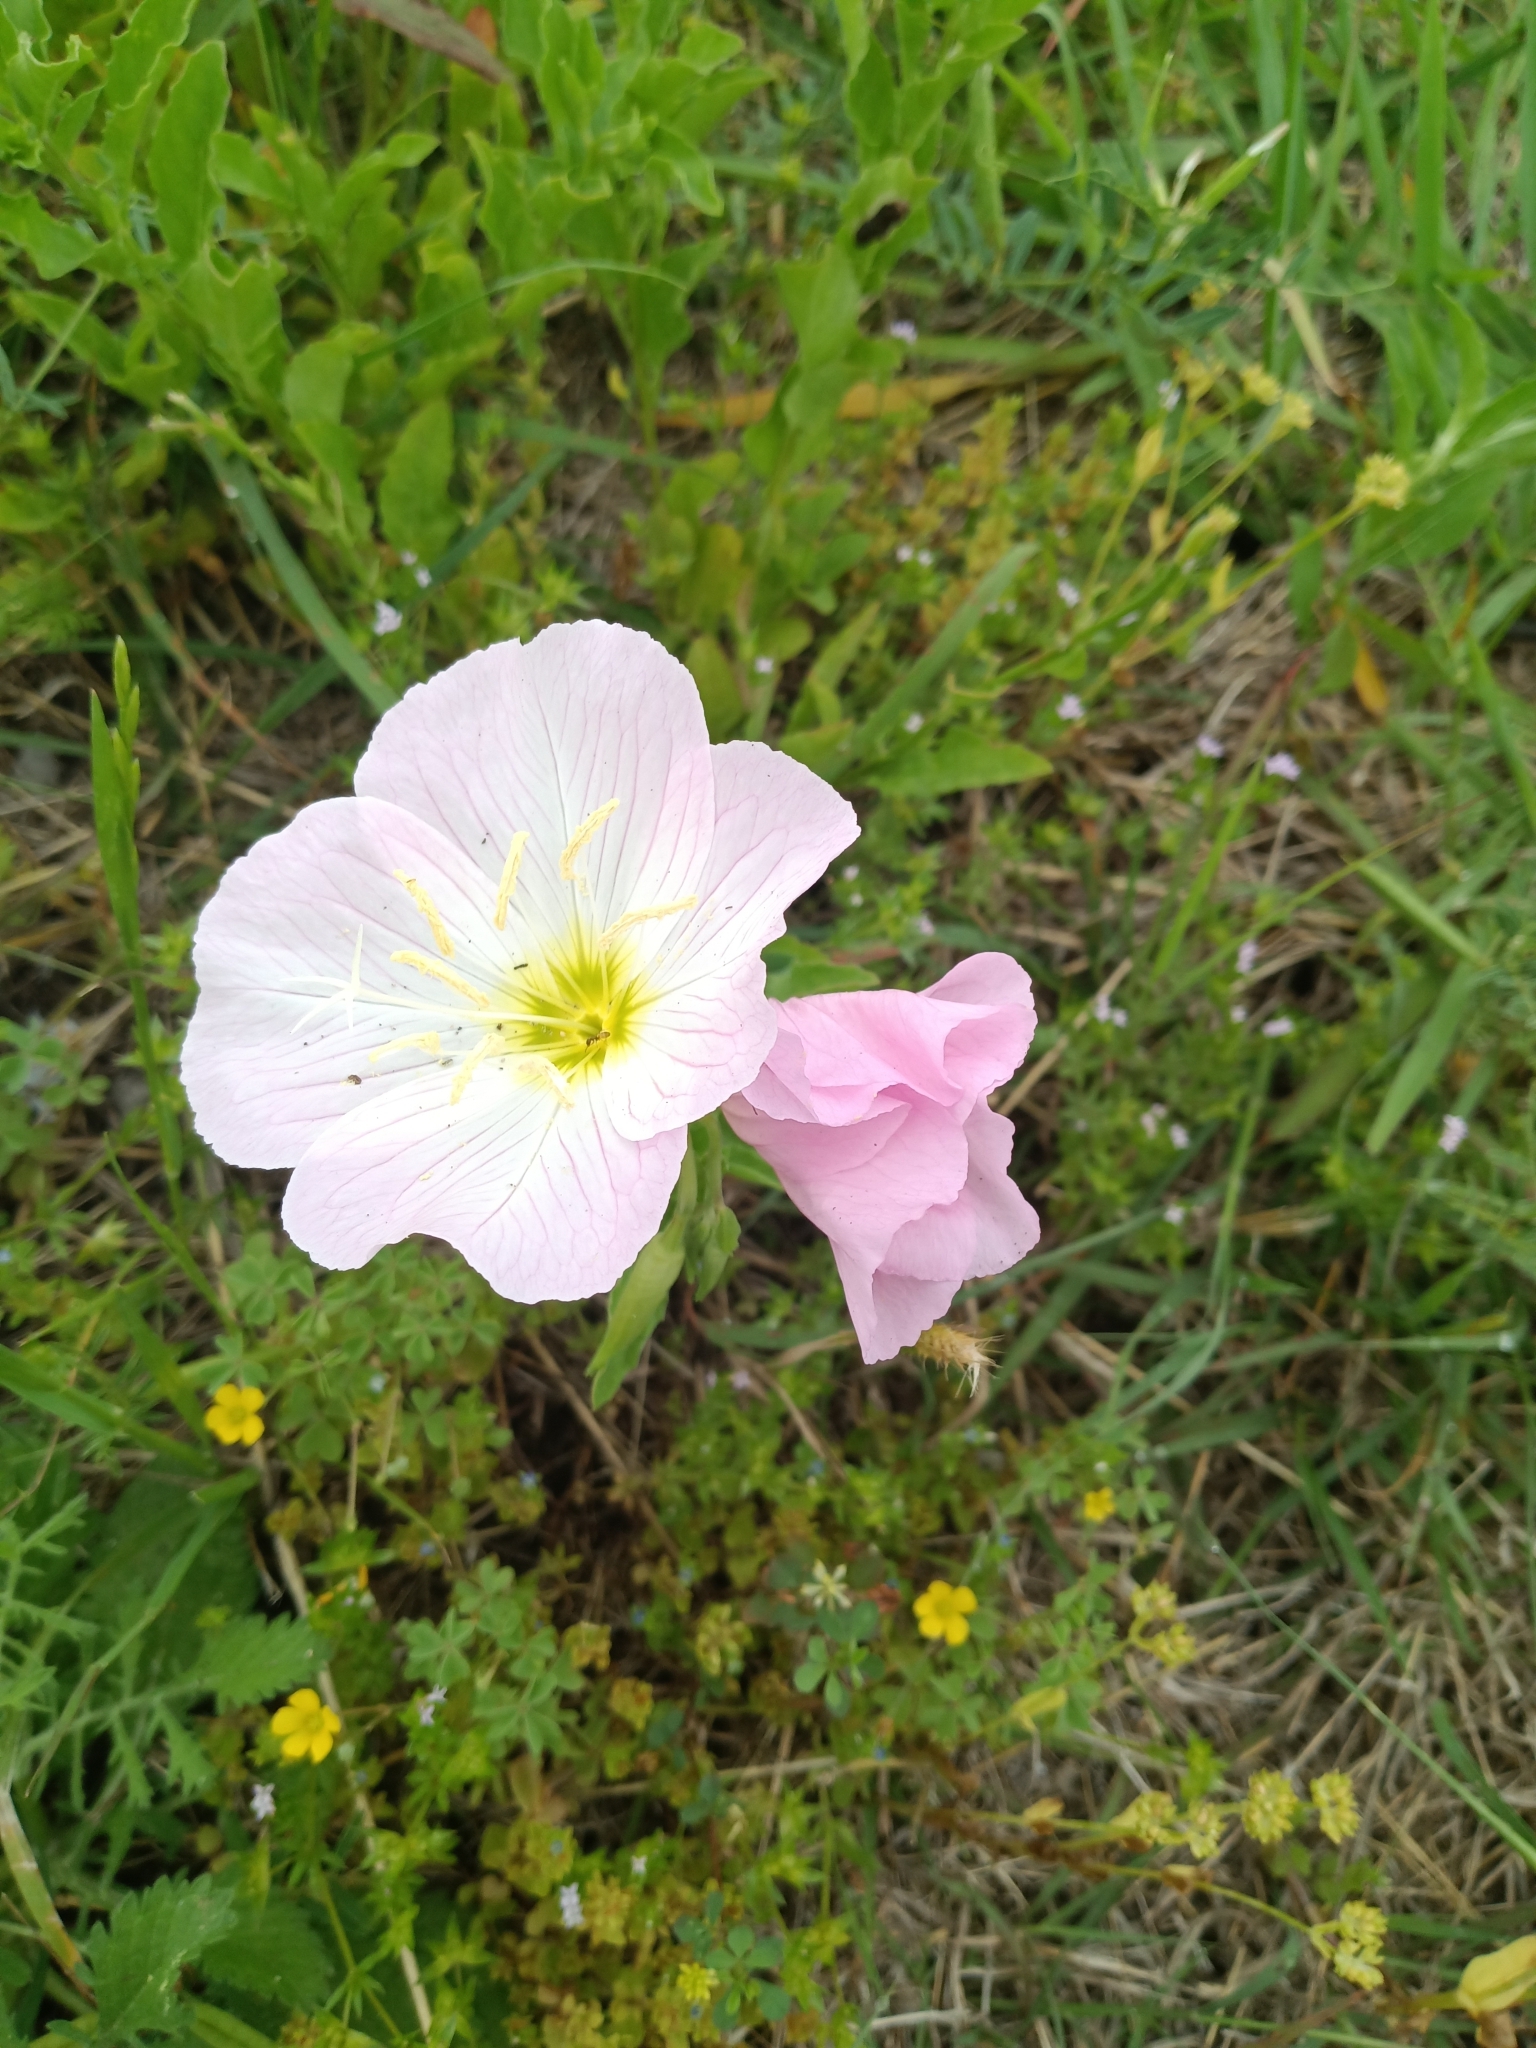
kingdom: Plantae
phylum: Tracheophyta
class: Magnoliopsida
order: Myrtales
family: Onagraceae
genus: Oenothera
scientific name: Oenothera speciosa
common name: White evening-primrose
